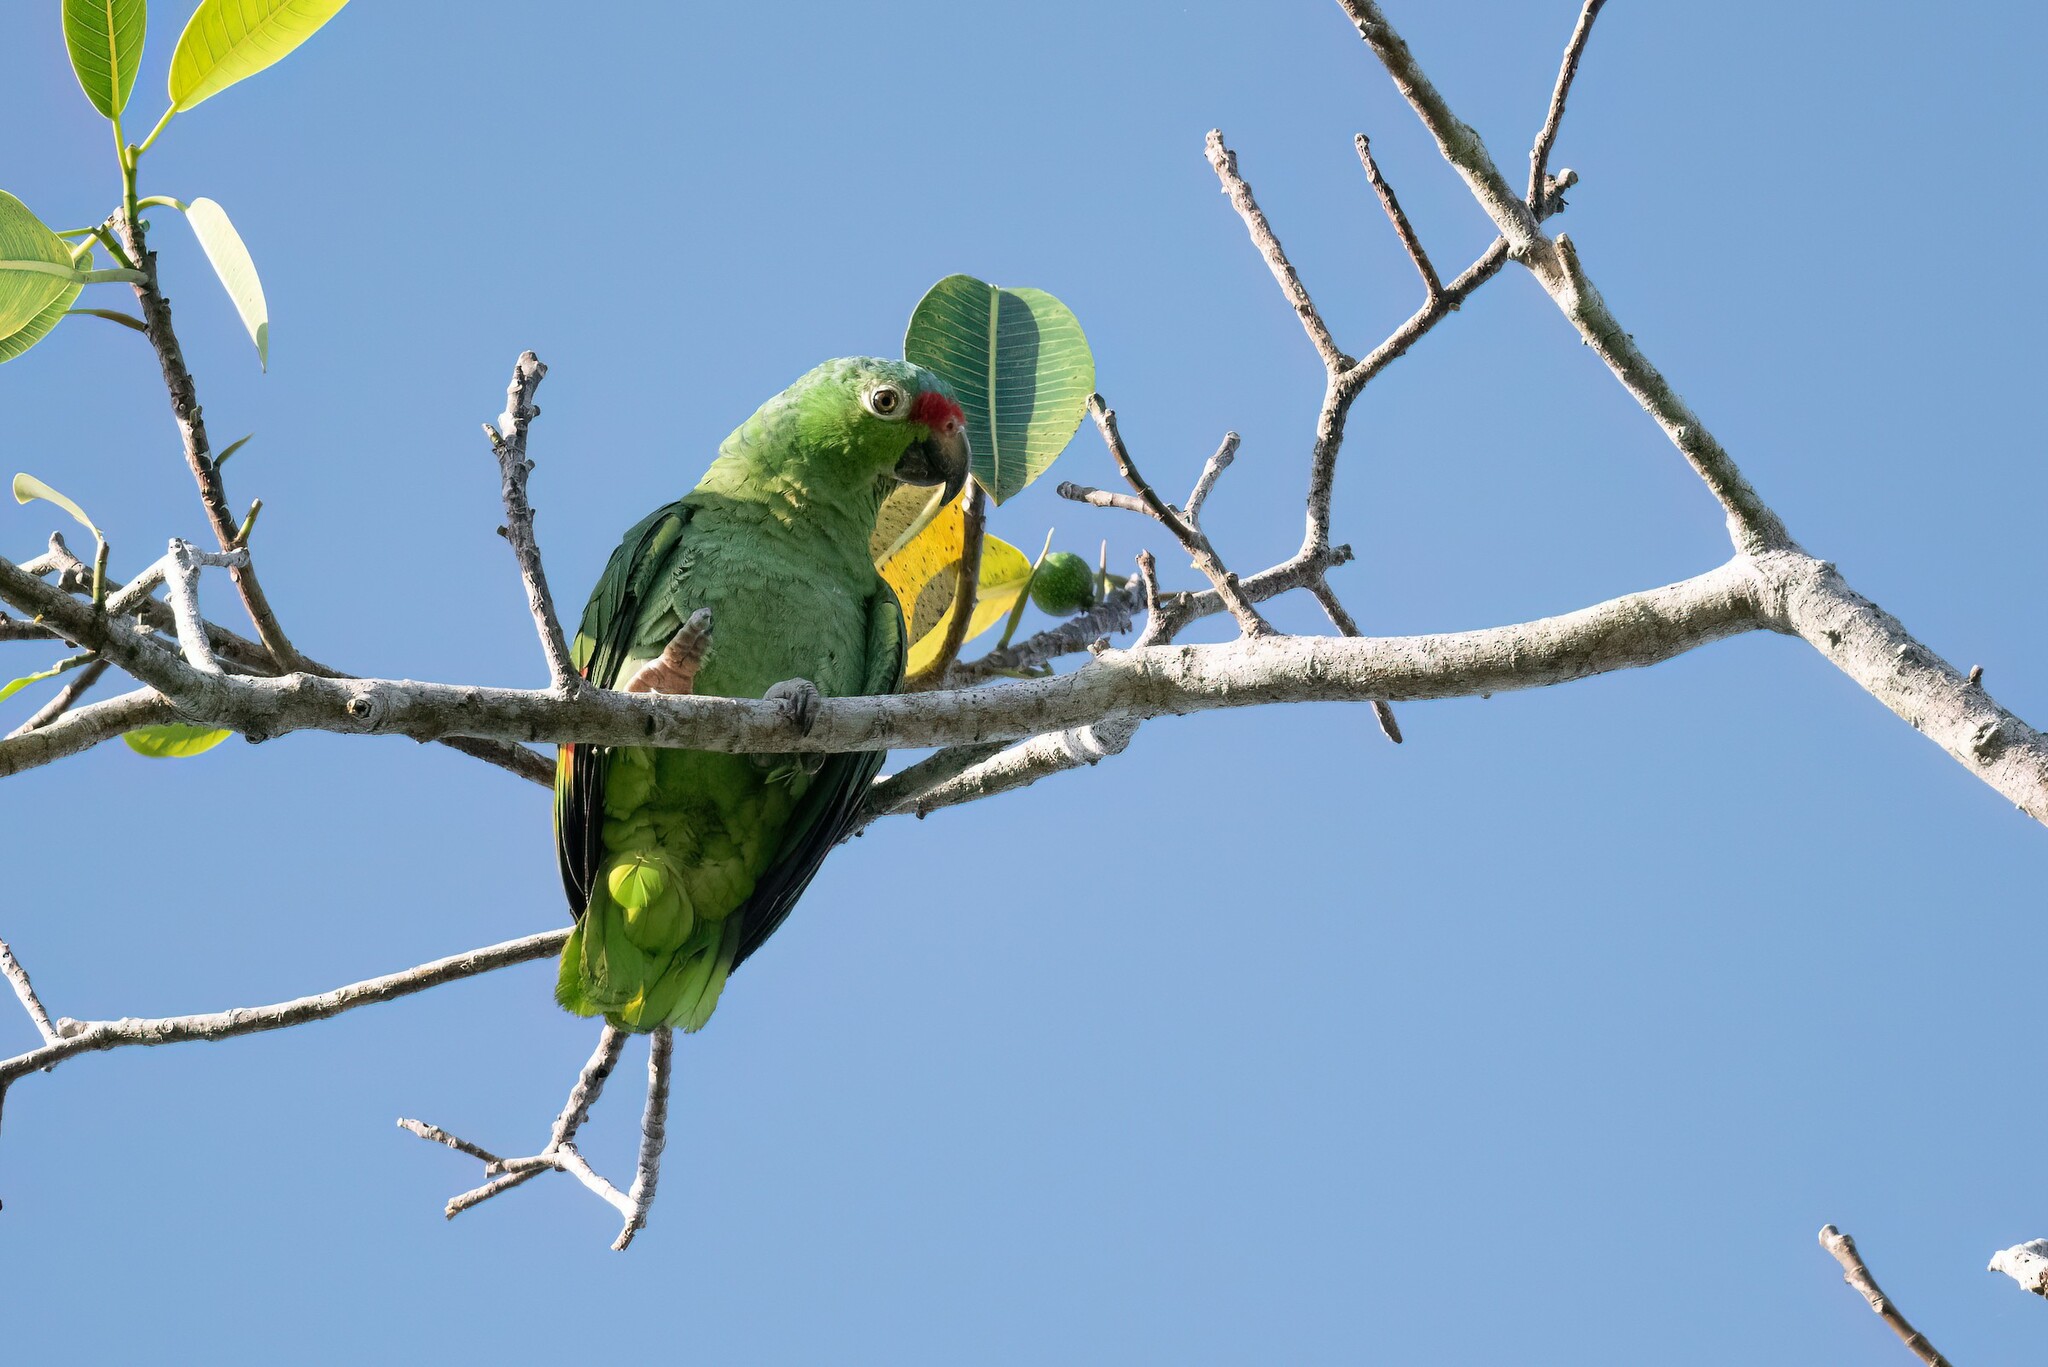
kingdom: Animalia
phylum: Chordata
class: Aves
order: Psittaciformes
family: Psittacidae
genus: Amazona
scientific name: Amazona autumnalis
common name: Red-lored amazon
